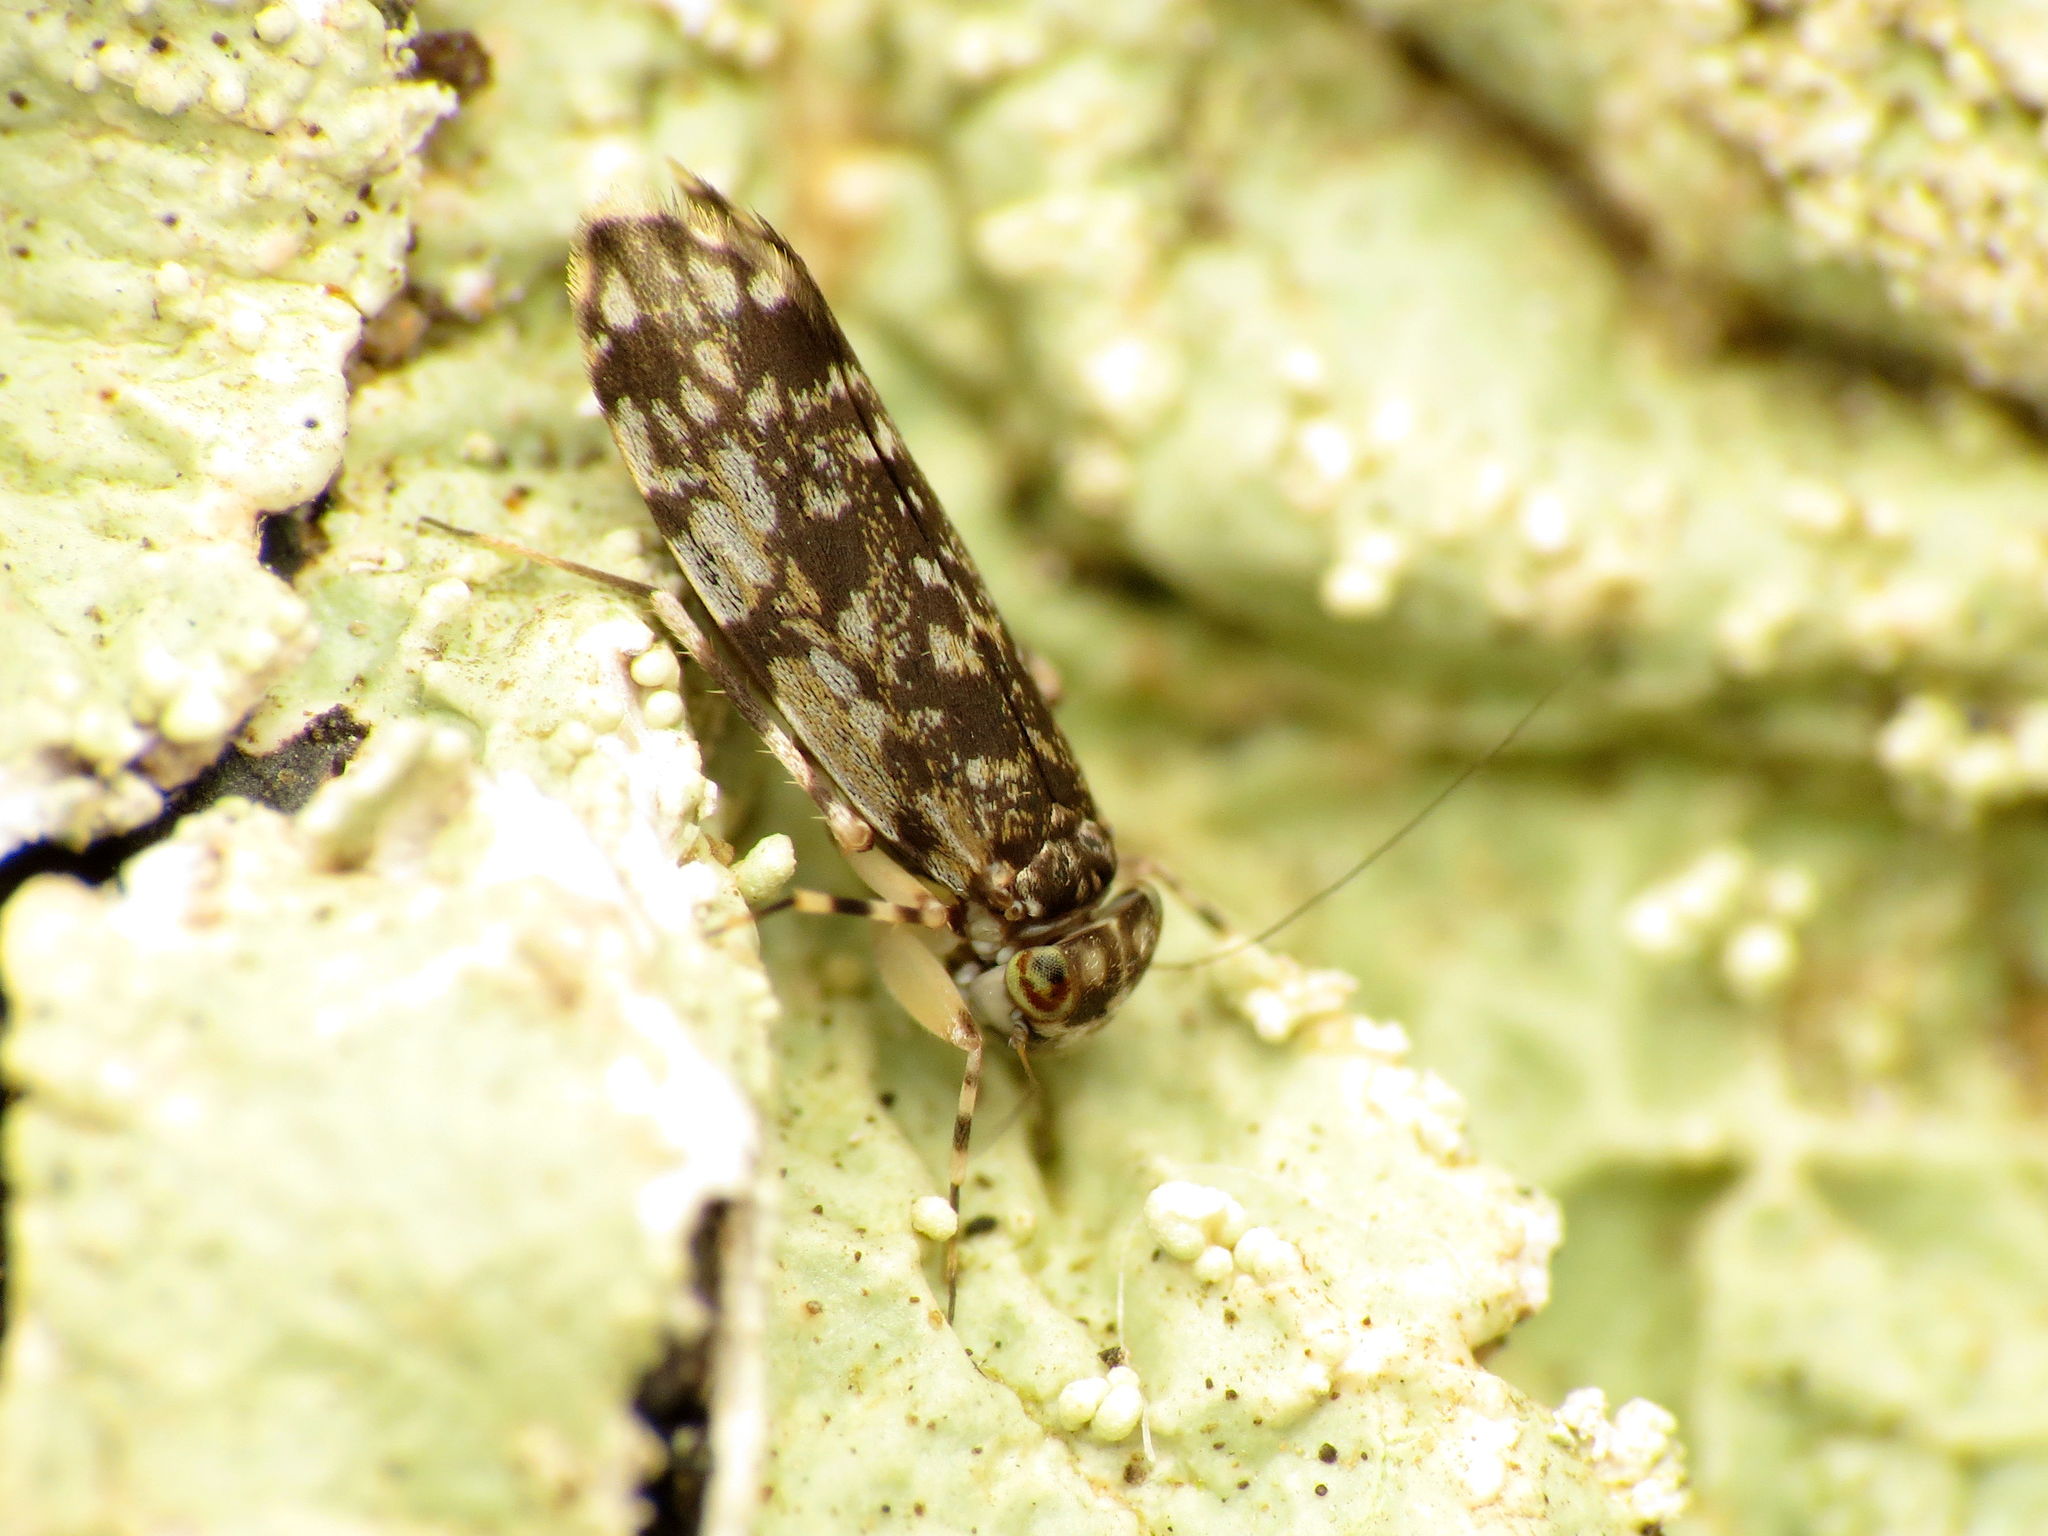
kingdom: Animalia
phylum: Arthropoda
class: Insecta
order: Psocodea
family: Amphientomidae
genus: Stimulopalpus
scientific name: Stimulopalpus japonicus
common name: Tropical bark louse
